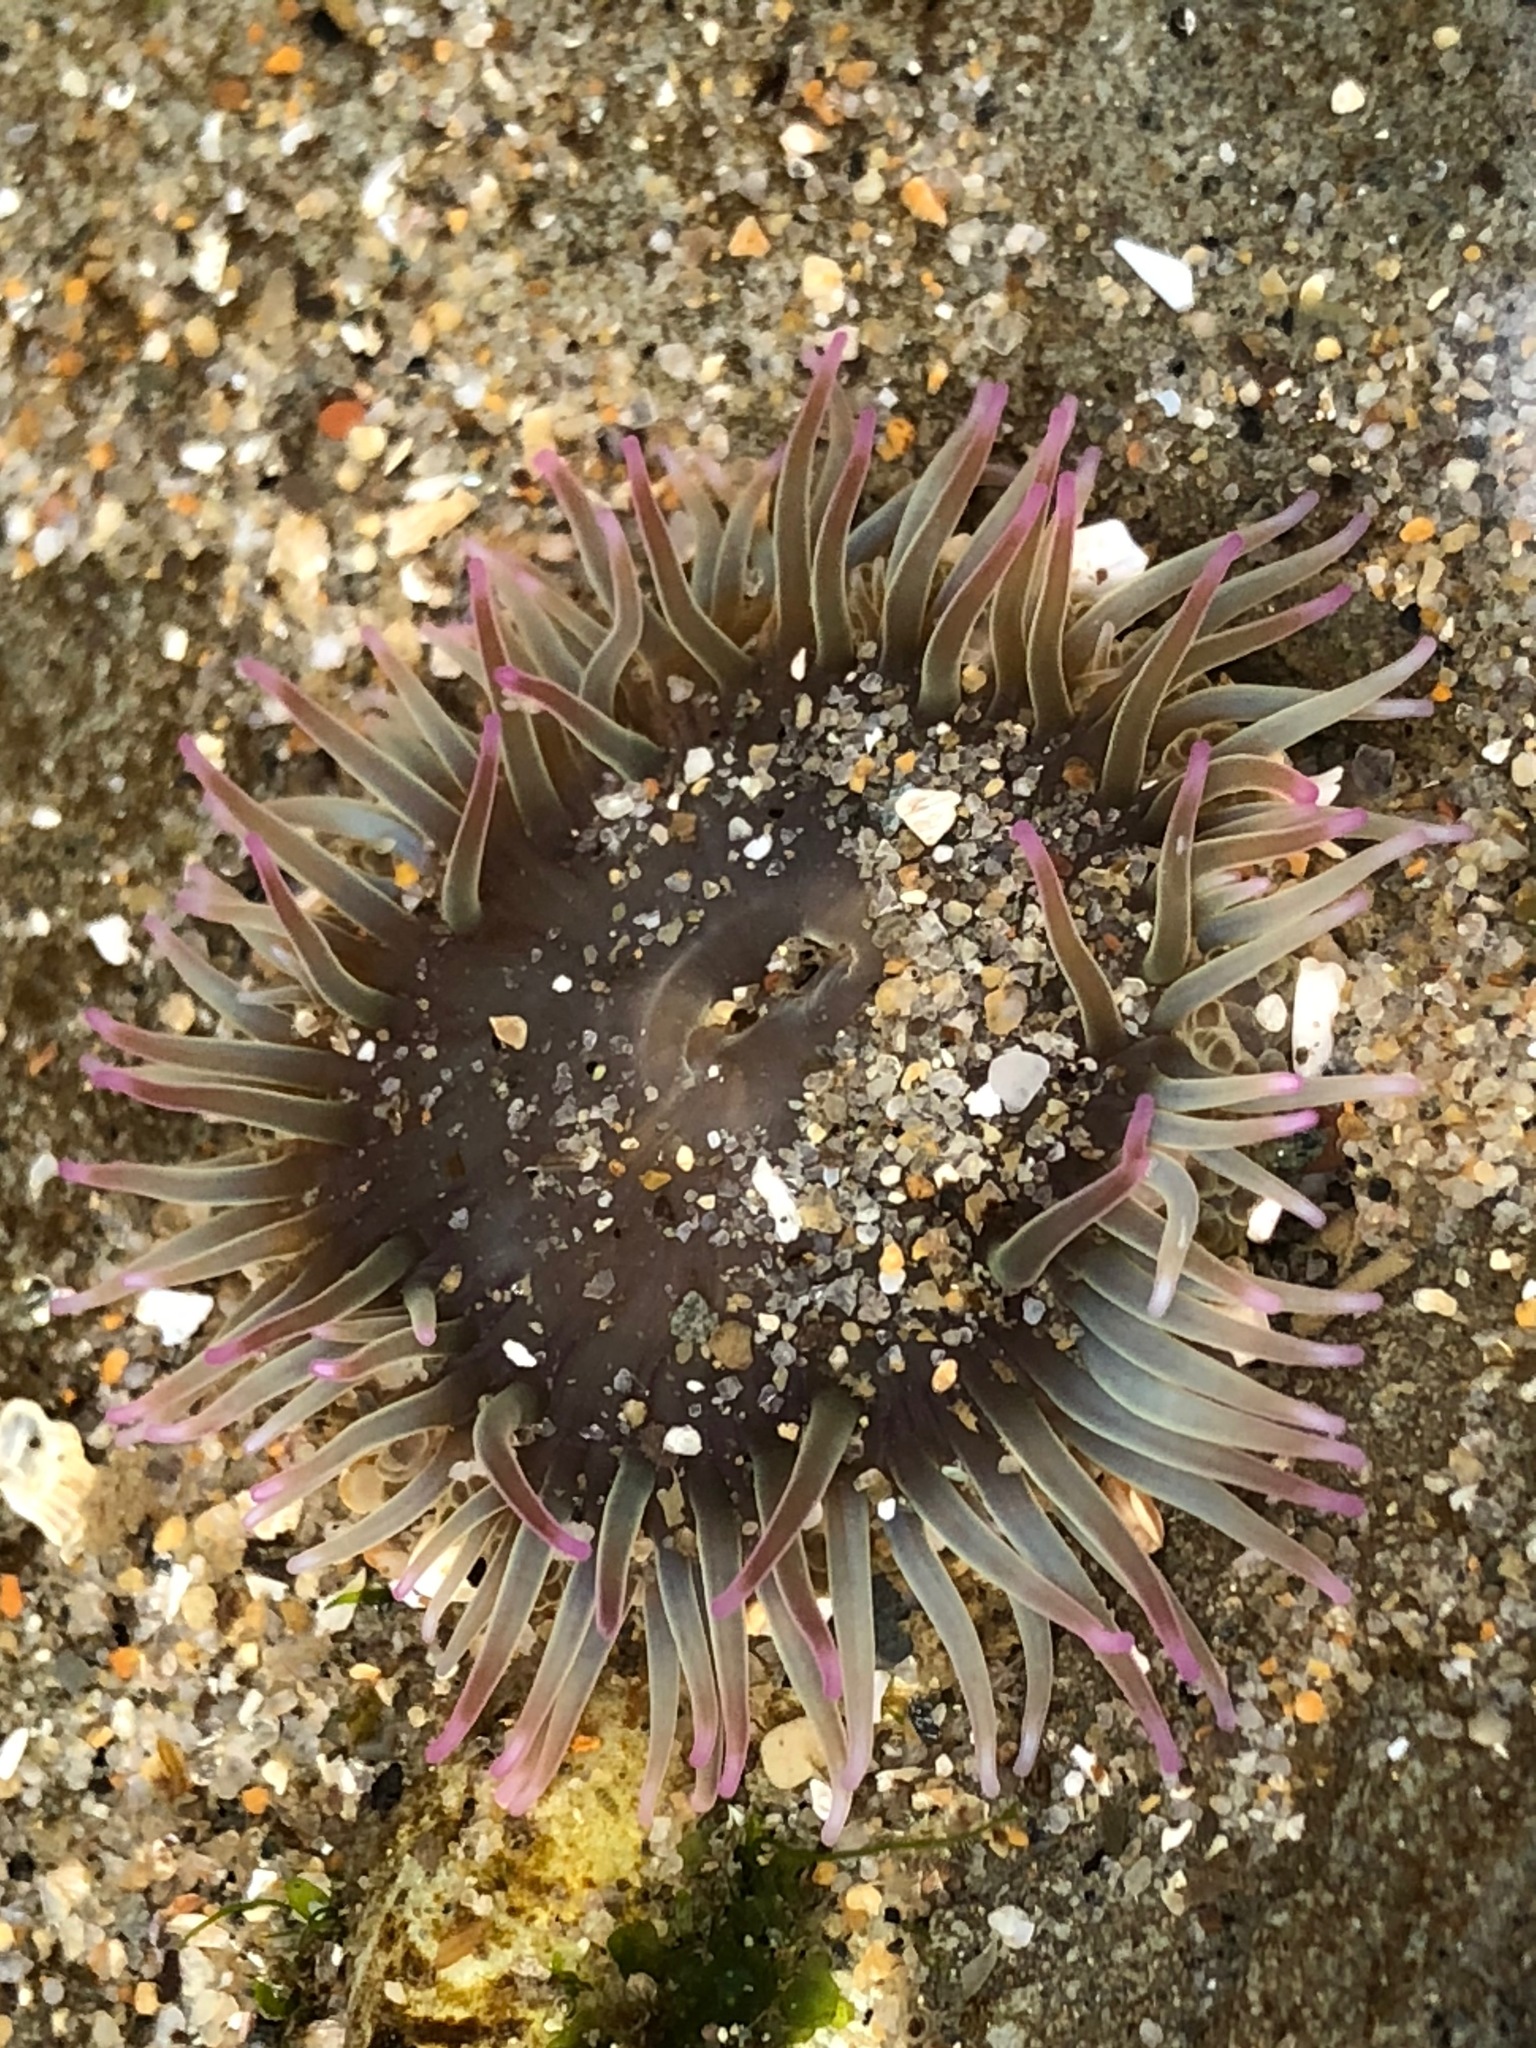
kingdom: Animalia
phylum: Cnidaria
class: Anthozoa
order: Actiniaria
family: Actiniidae
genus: Anthopleura
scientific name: Anthopleura elegantissima
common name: Clonal anemone
